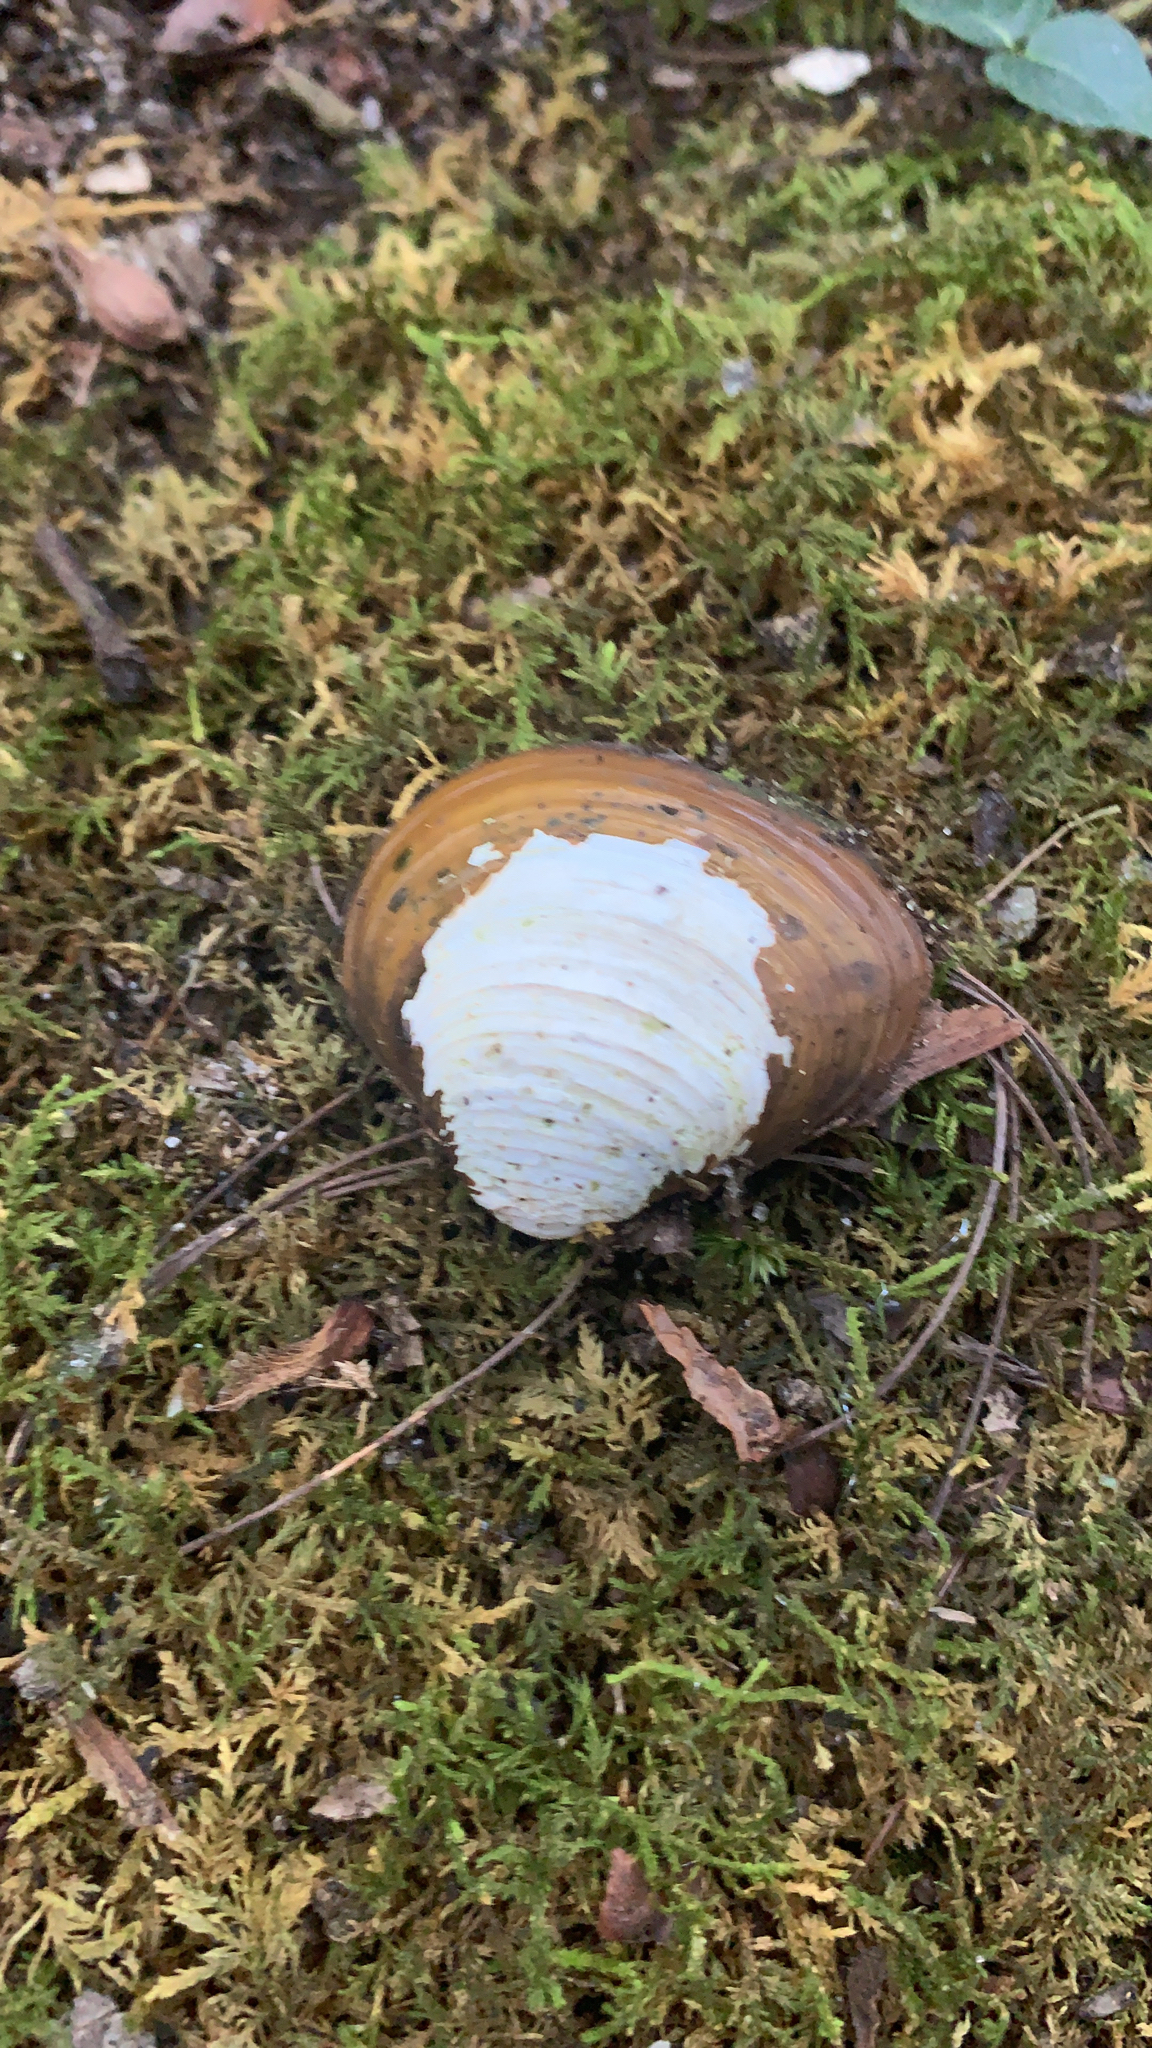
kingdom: Animalia
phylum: Mollusca
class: Bivalvia
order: Venerida
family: Cyrenidae
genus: Corbicula
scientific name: Corbicula fluminea
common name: Asian clam
